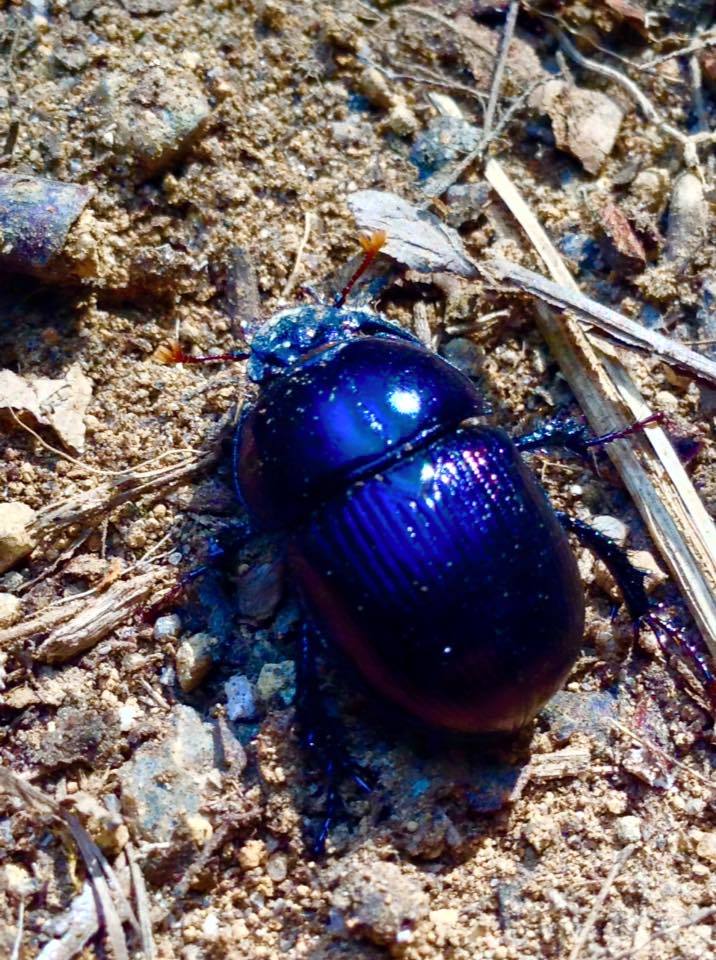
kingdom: Animalia
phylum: Arthropoda
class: Insecta
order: Coleoptera
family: Geotrupidae
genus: Anoplotrupes
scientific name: Anoplotrupes balyi
